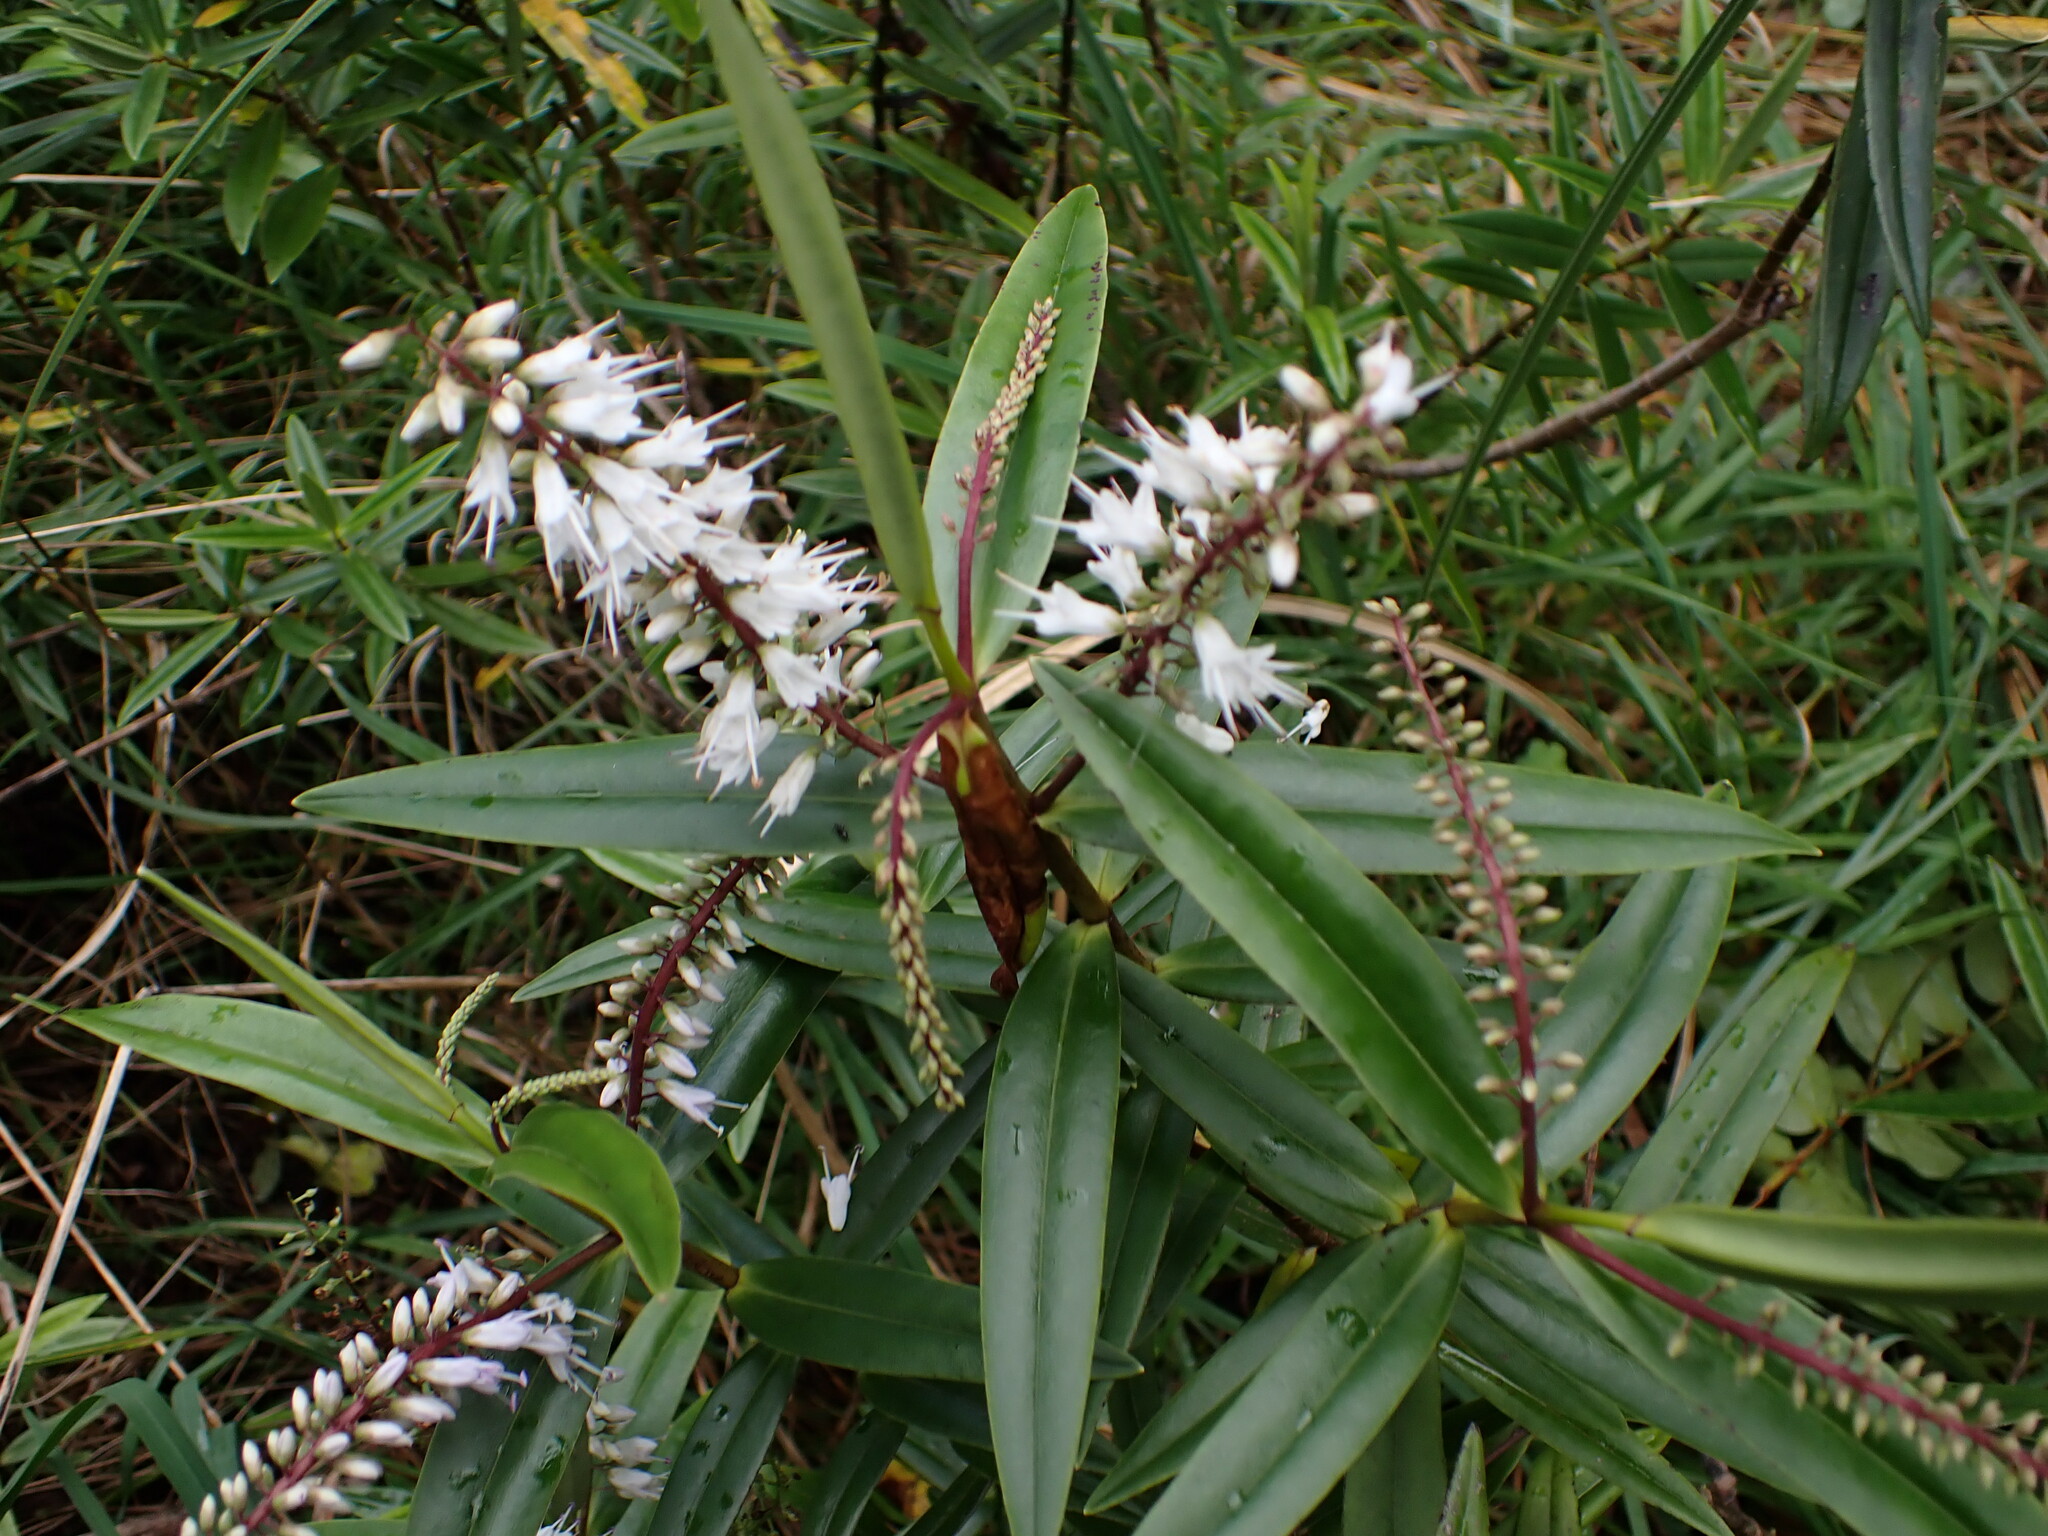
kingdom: Plantae
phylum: Tracheophyta
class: Magnoliopsida
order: Lamiales
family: Plantaginaceae
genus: Veronica
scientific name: Veronica macrocarpa
